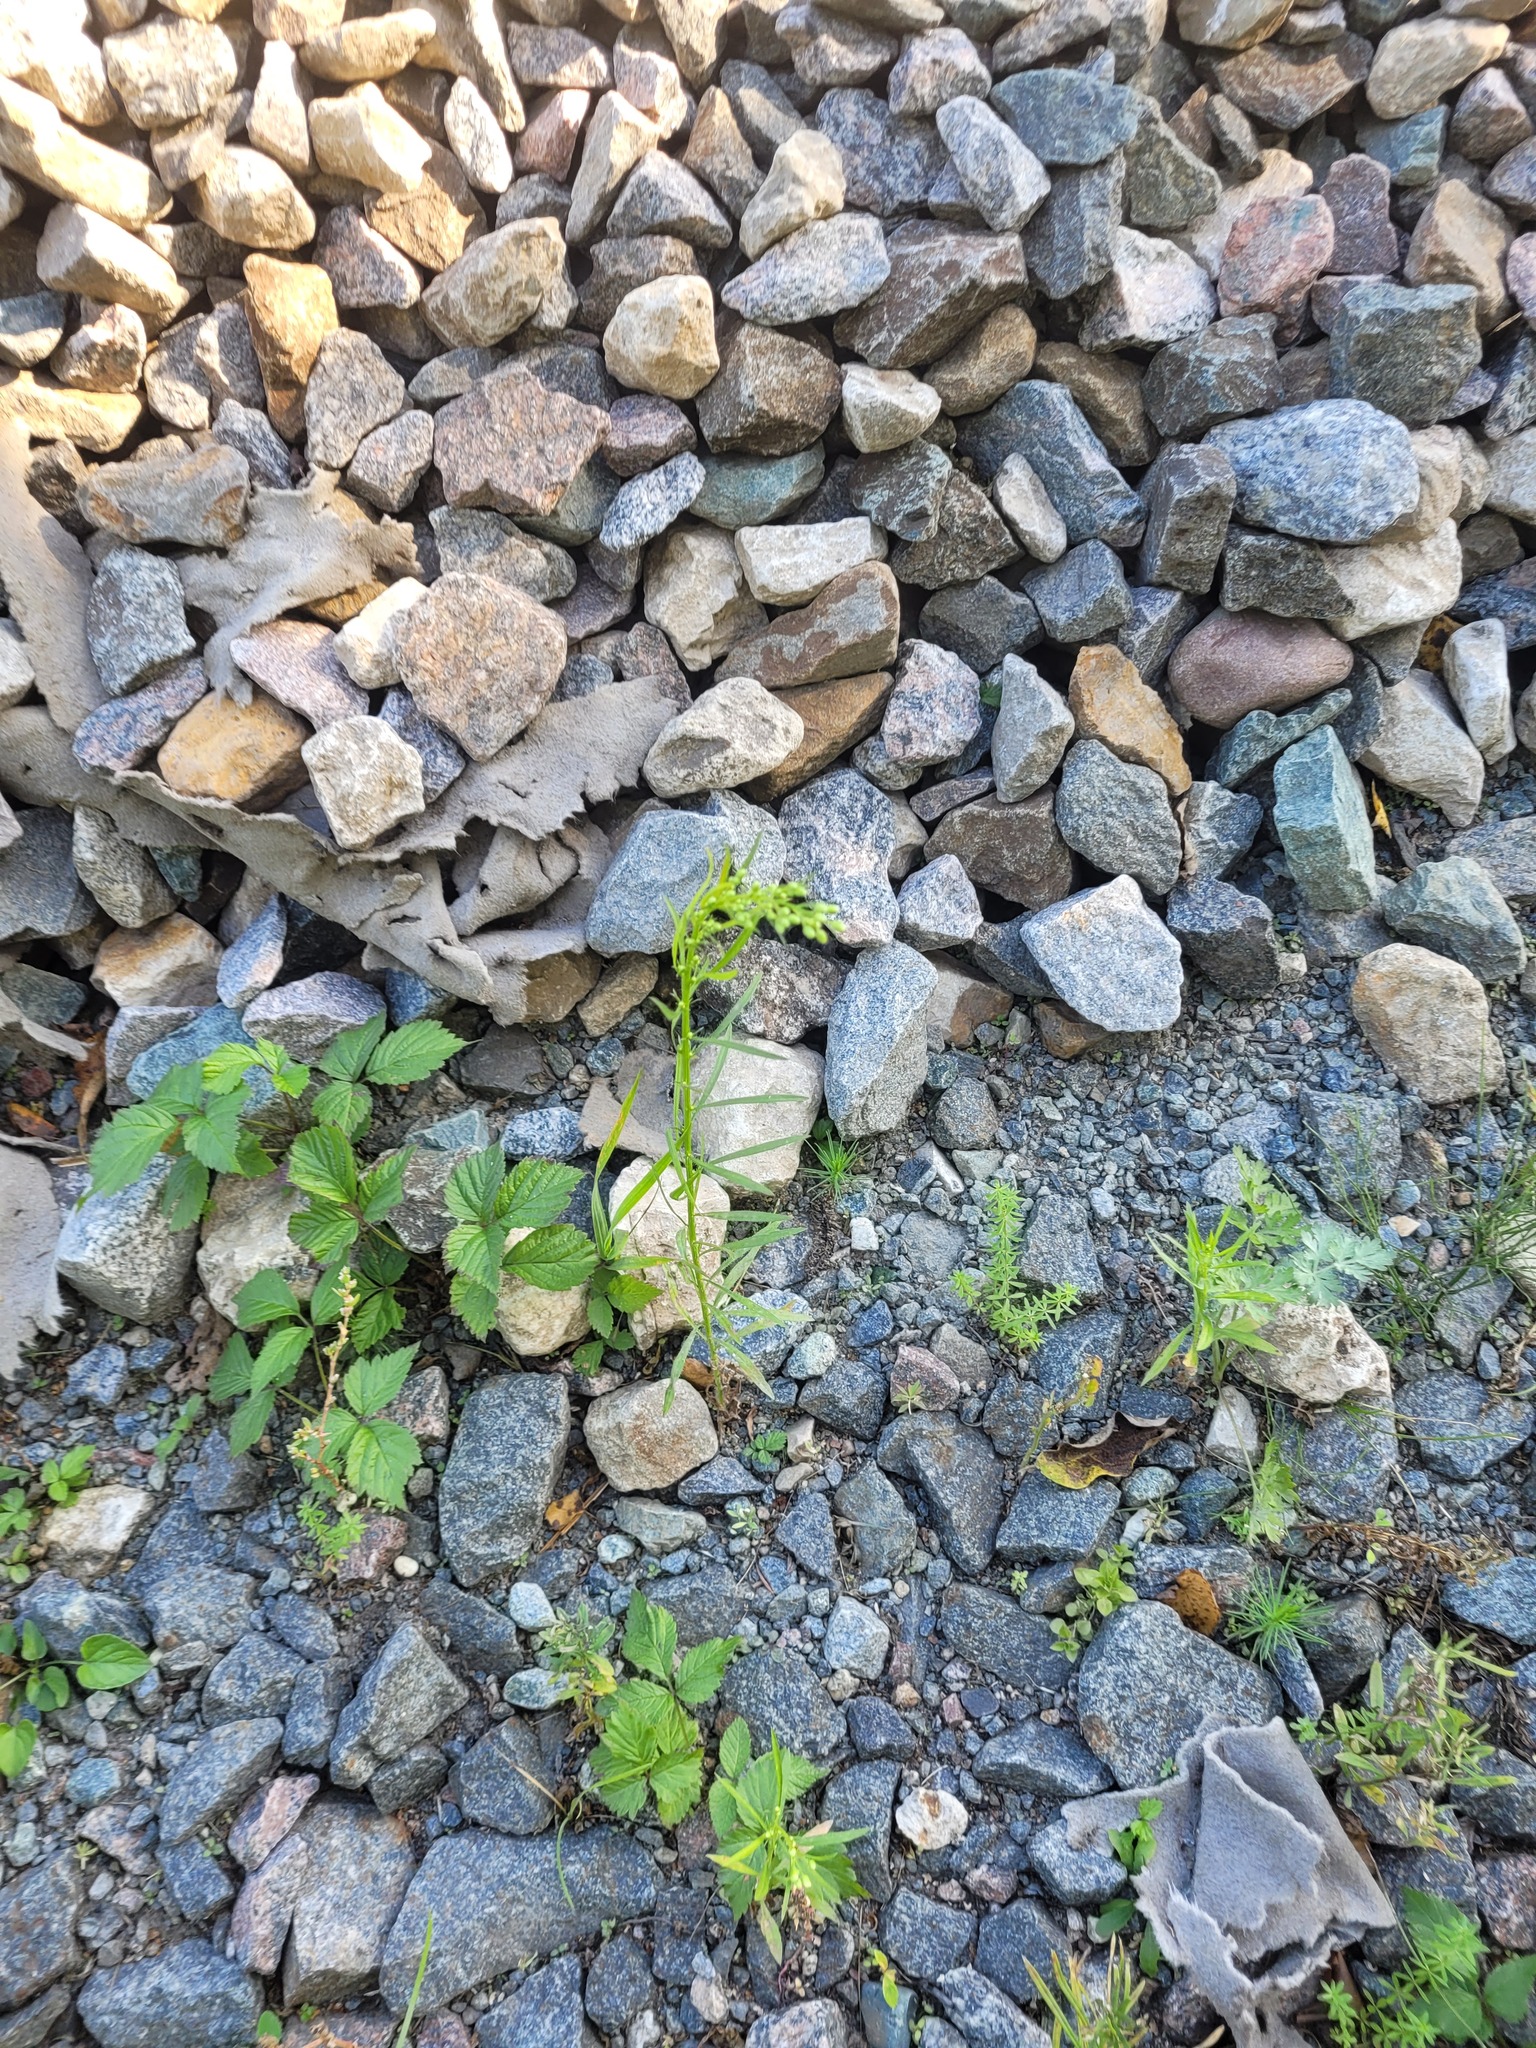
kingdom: Plantae
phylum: Tracheophyta
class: Magnoliopsida
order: Asterales
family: Asteraceae
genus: Erigeron
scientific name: Erigeron canadensis
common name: Canadian fleabane
